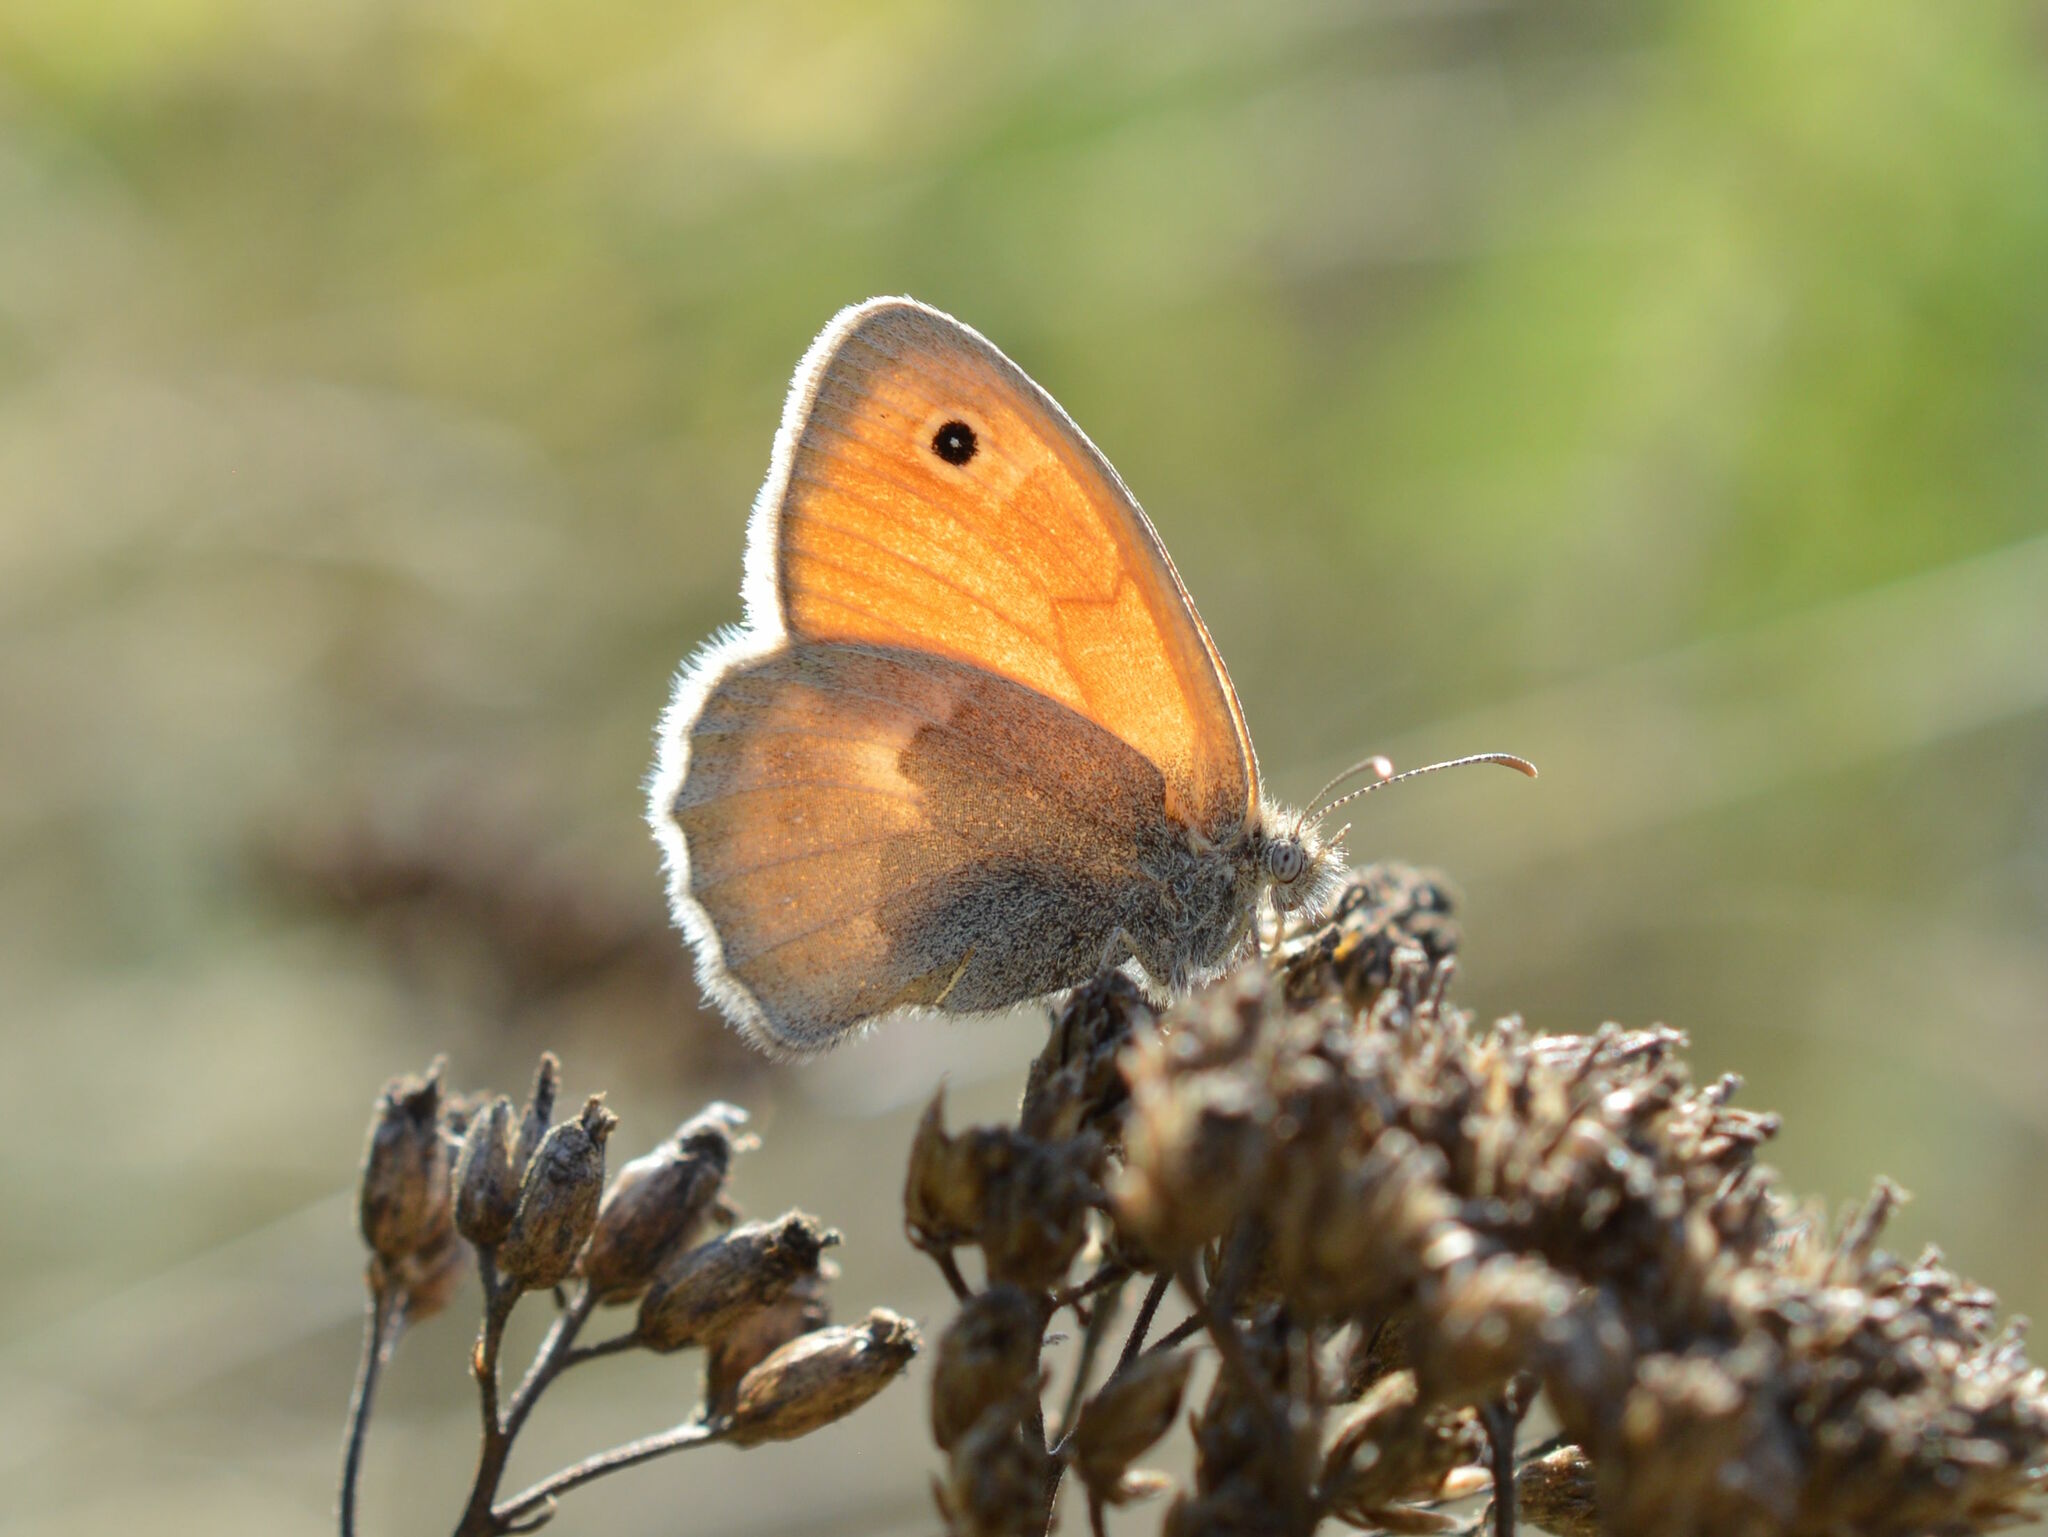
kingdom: Animalia
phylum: Arthropoda
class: Insecta
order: Lepidoptera
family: Nymphalidae
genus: Coenonympha
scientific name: Coenonympha pamphilus
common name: Small heath
